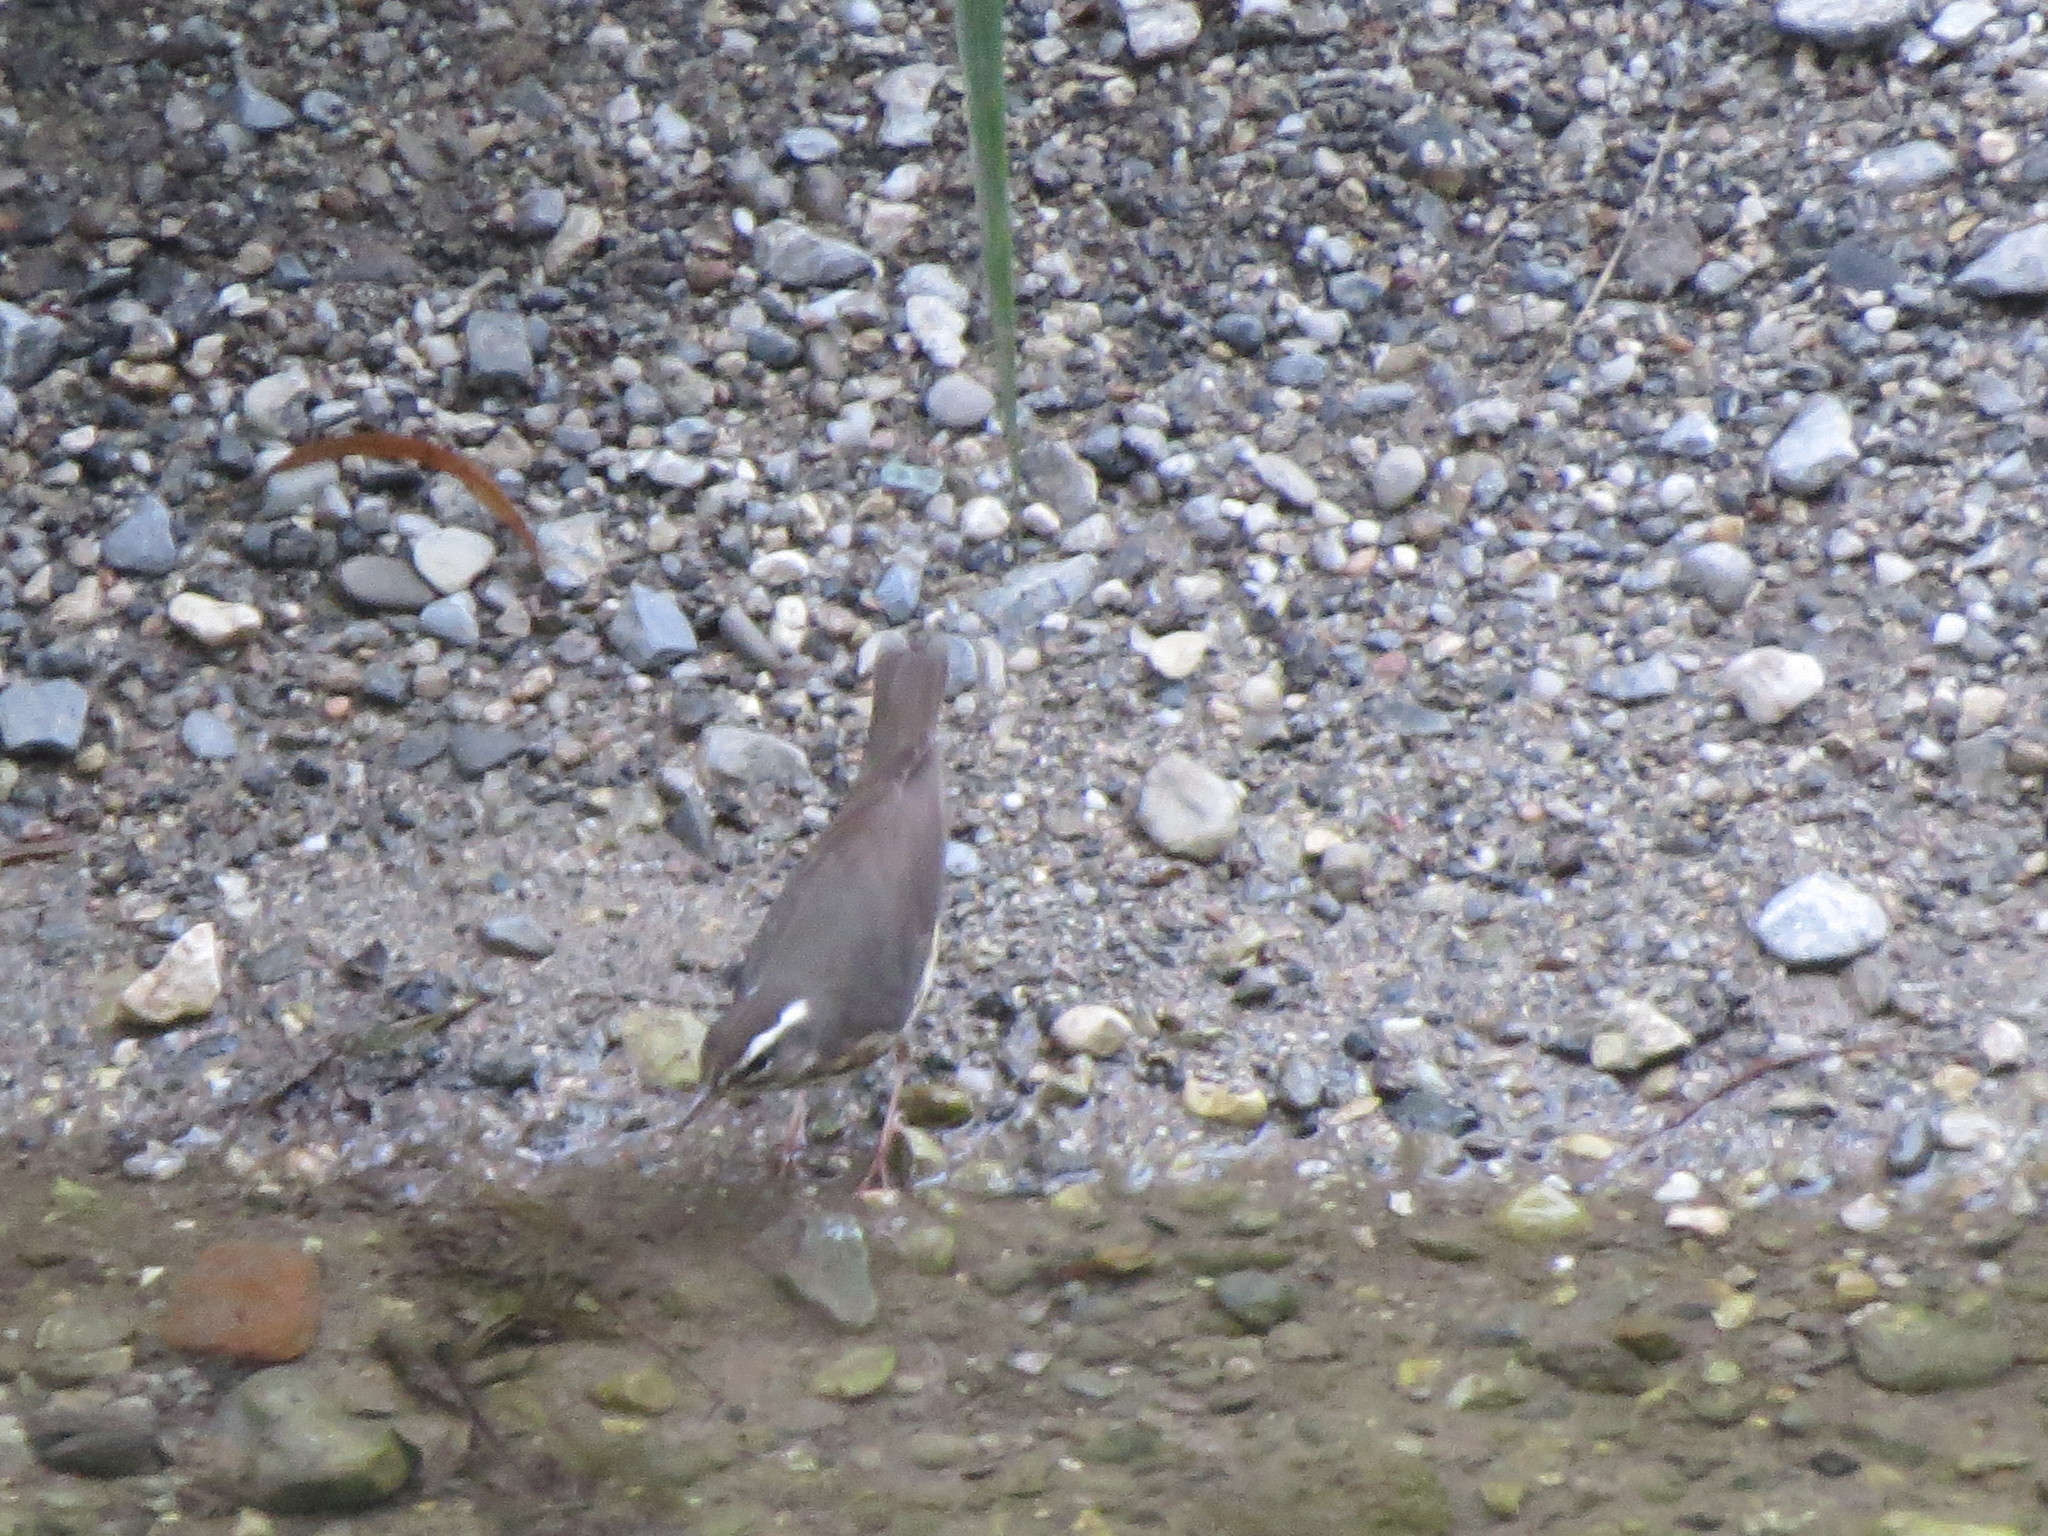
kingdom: Animalia
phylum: Chordata
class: Aves
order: Passeriformes
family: Parulidae
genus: Parkesia
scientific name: Parkesia motacilla
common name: Louisiana waterthrush
